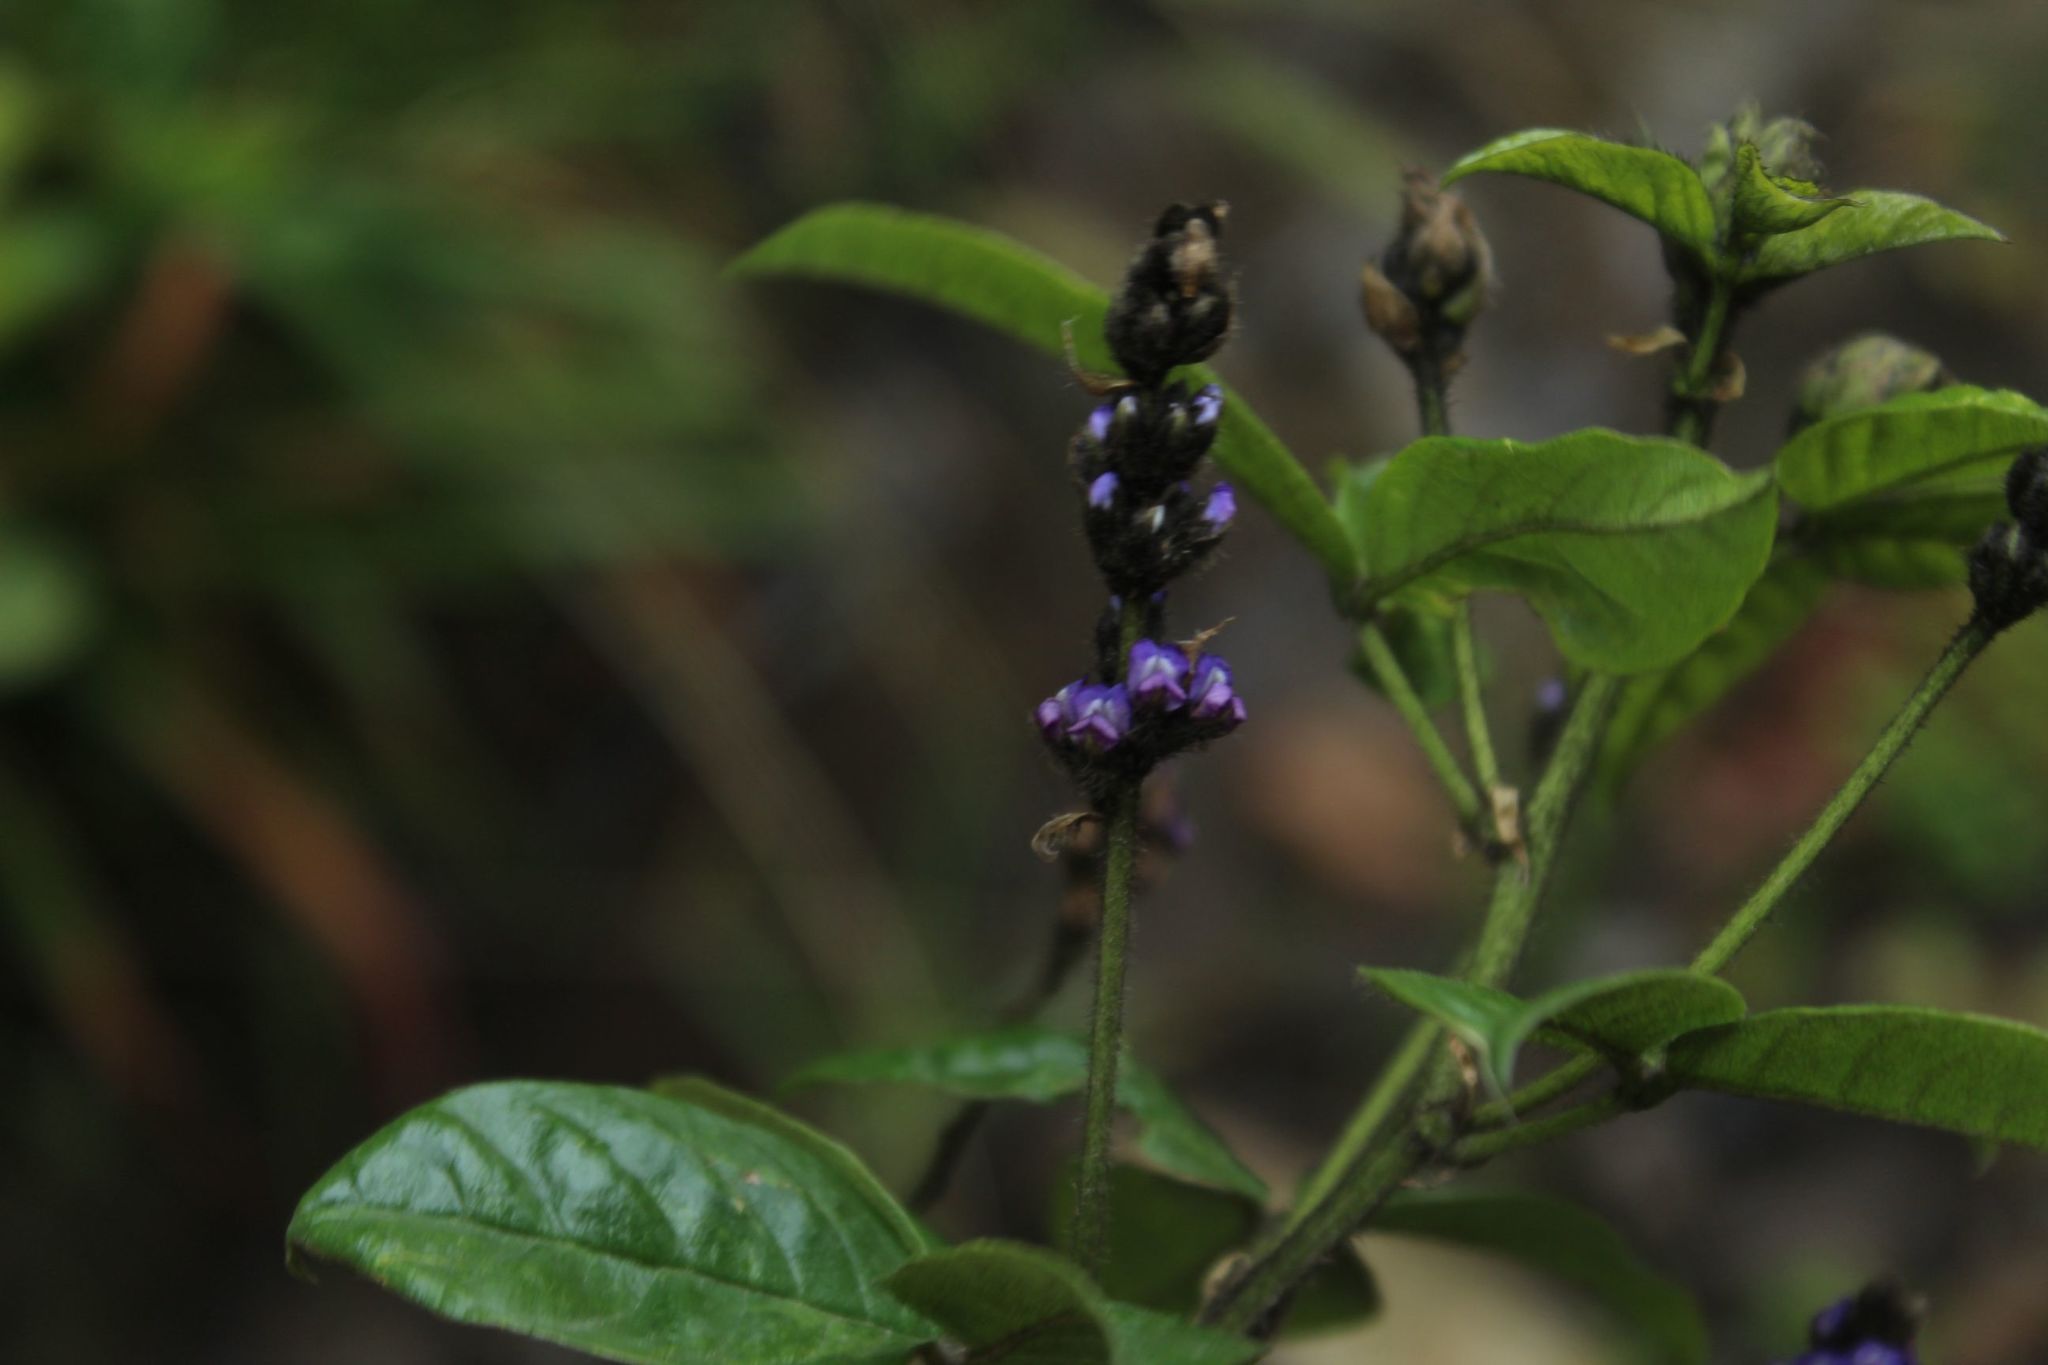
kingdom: Plantae
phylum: Tracheophyta
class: Magnoliopsida
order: Fabales
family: Fabaceae
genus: Psoralea
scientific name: Psoralea Otholobium mexicanum
